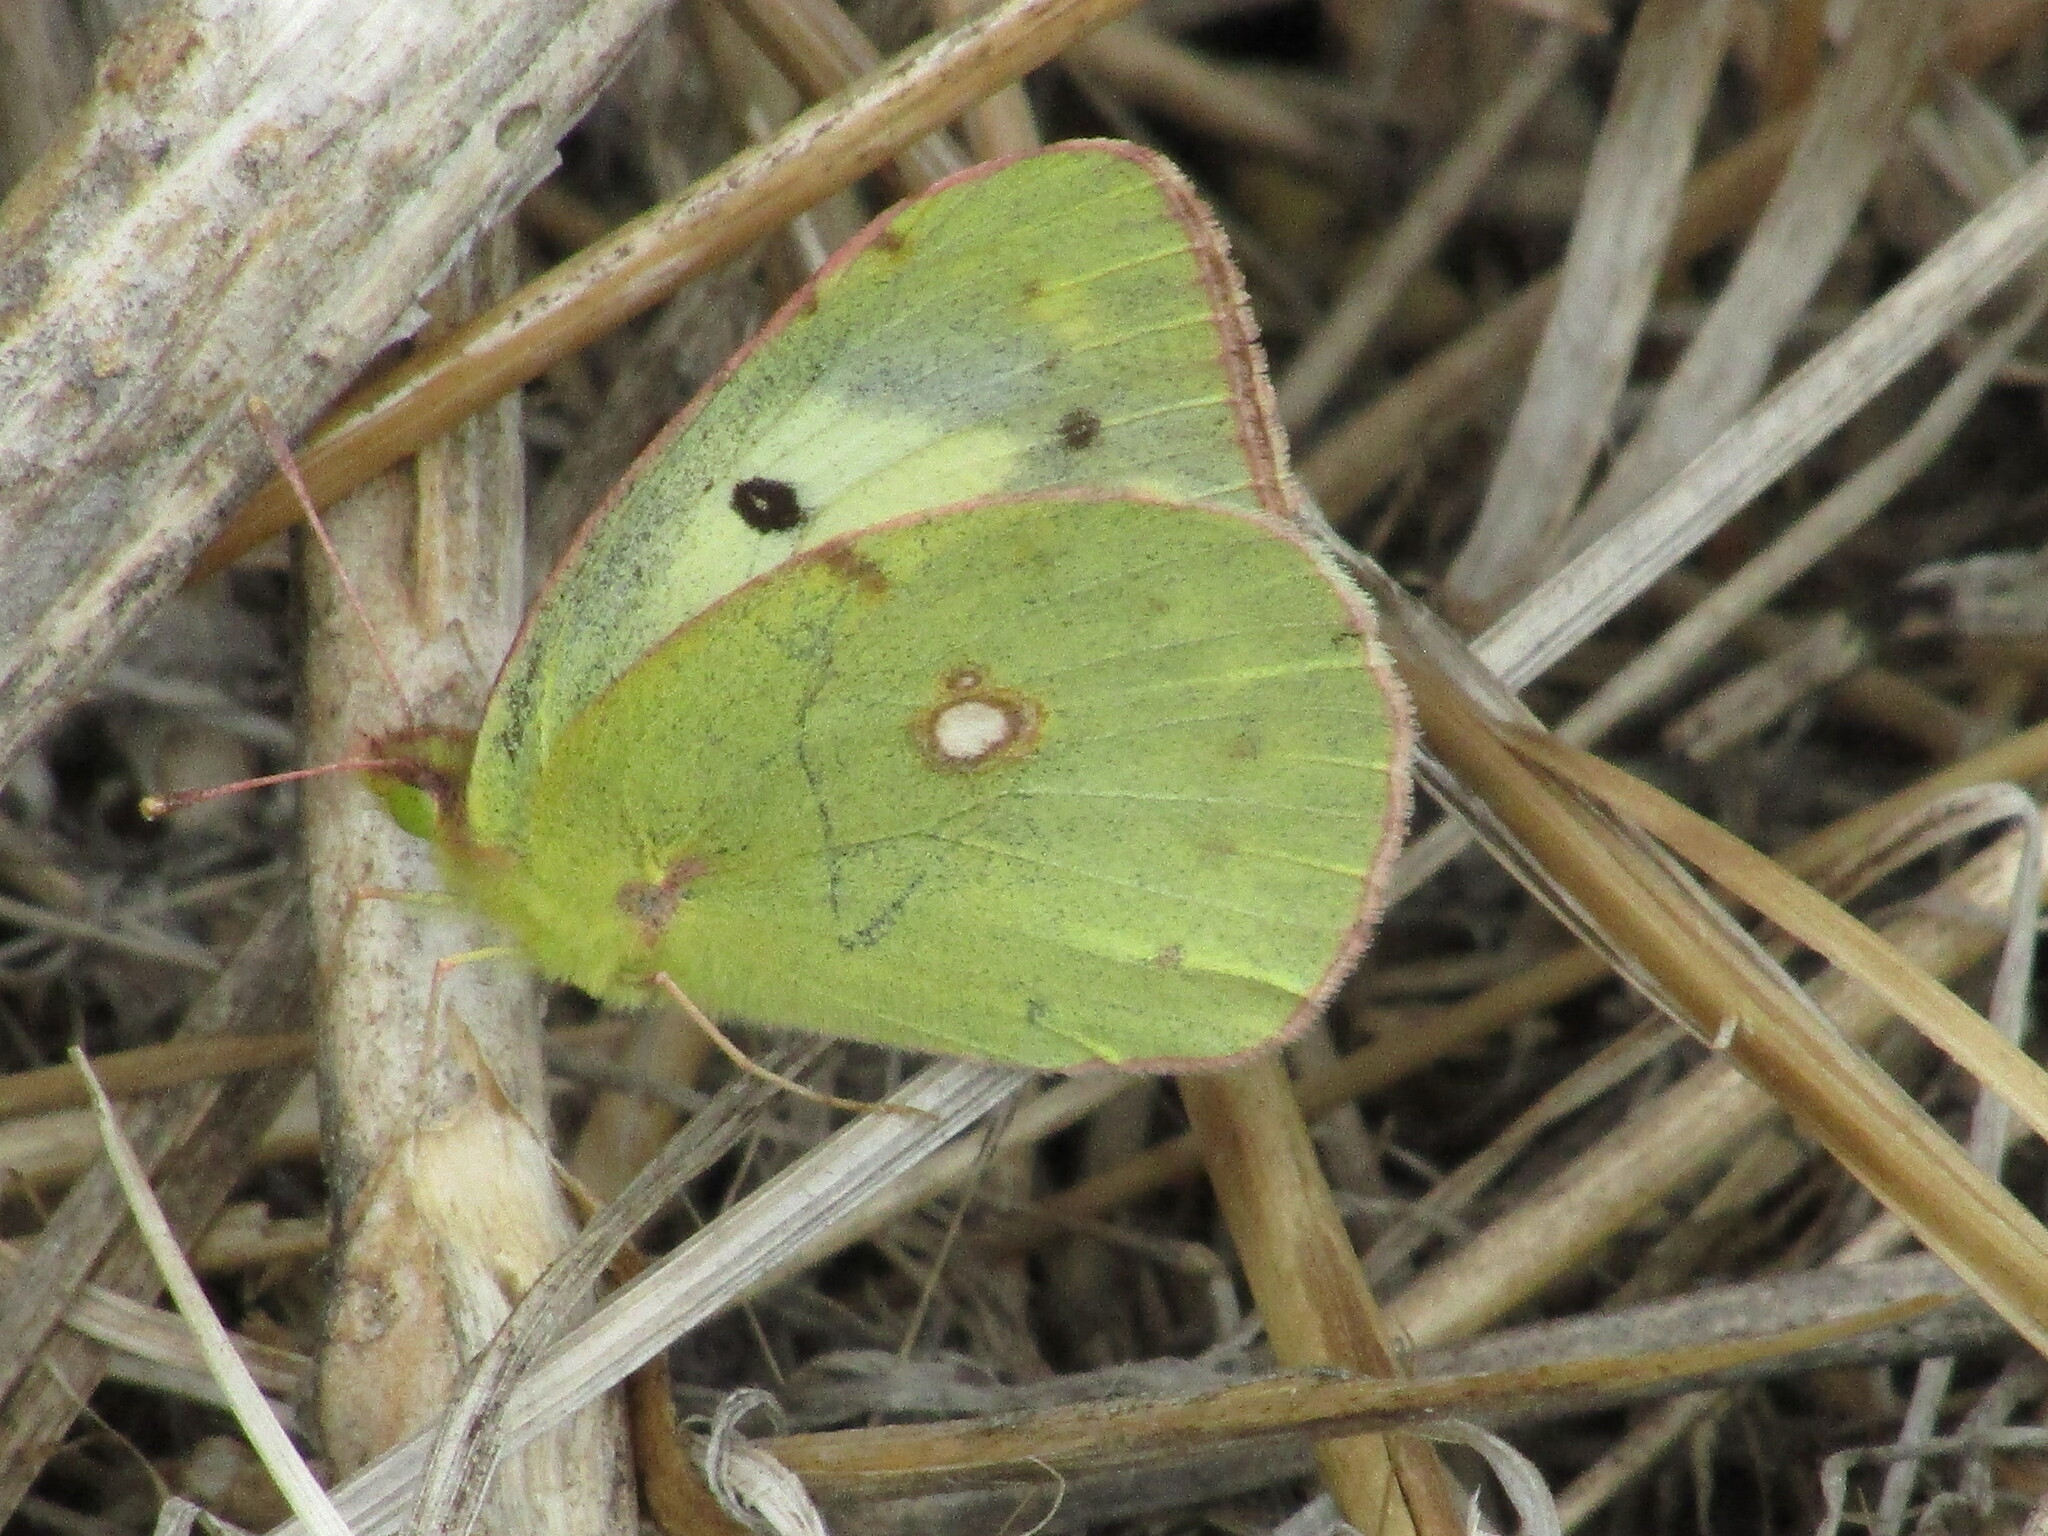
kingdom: Animalia
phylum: Arthropoda
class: Insecta
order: Lepidoptera
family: Pieridae
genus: Colias
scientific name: Colias
